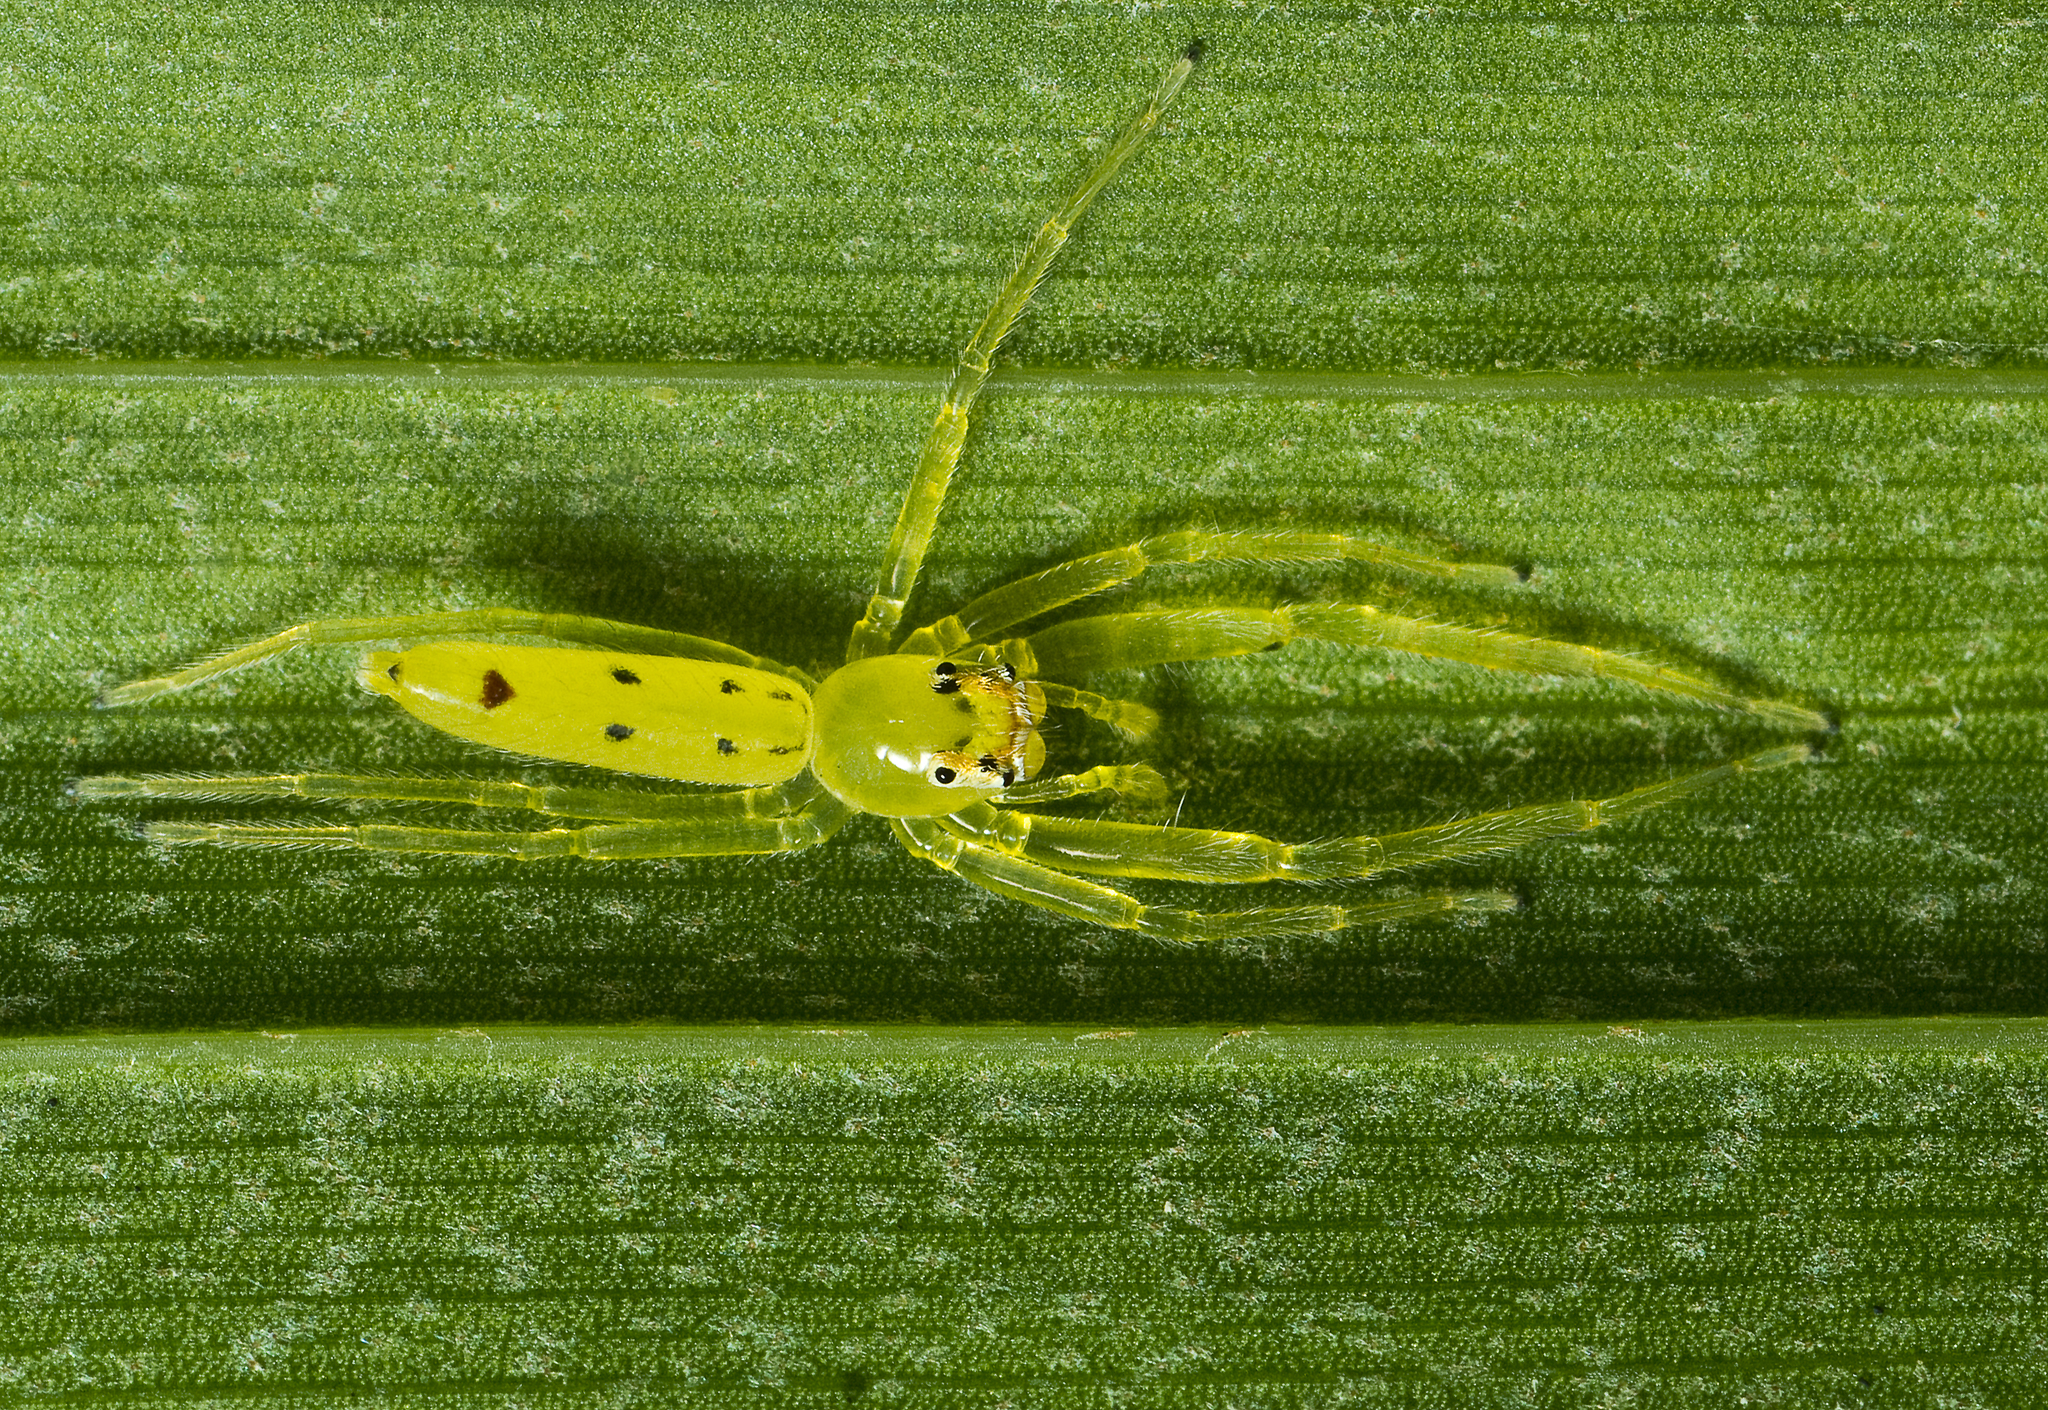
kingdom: Animalia
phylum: Arthropoda
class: Arachnida
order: Araneae
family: Salticidae
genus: Astilodes
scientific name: Astilodes mariae
